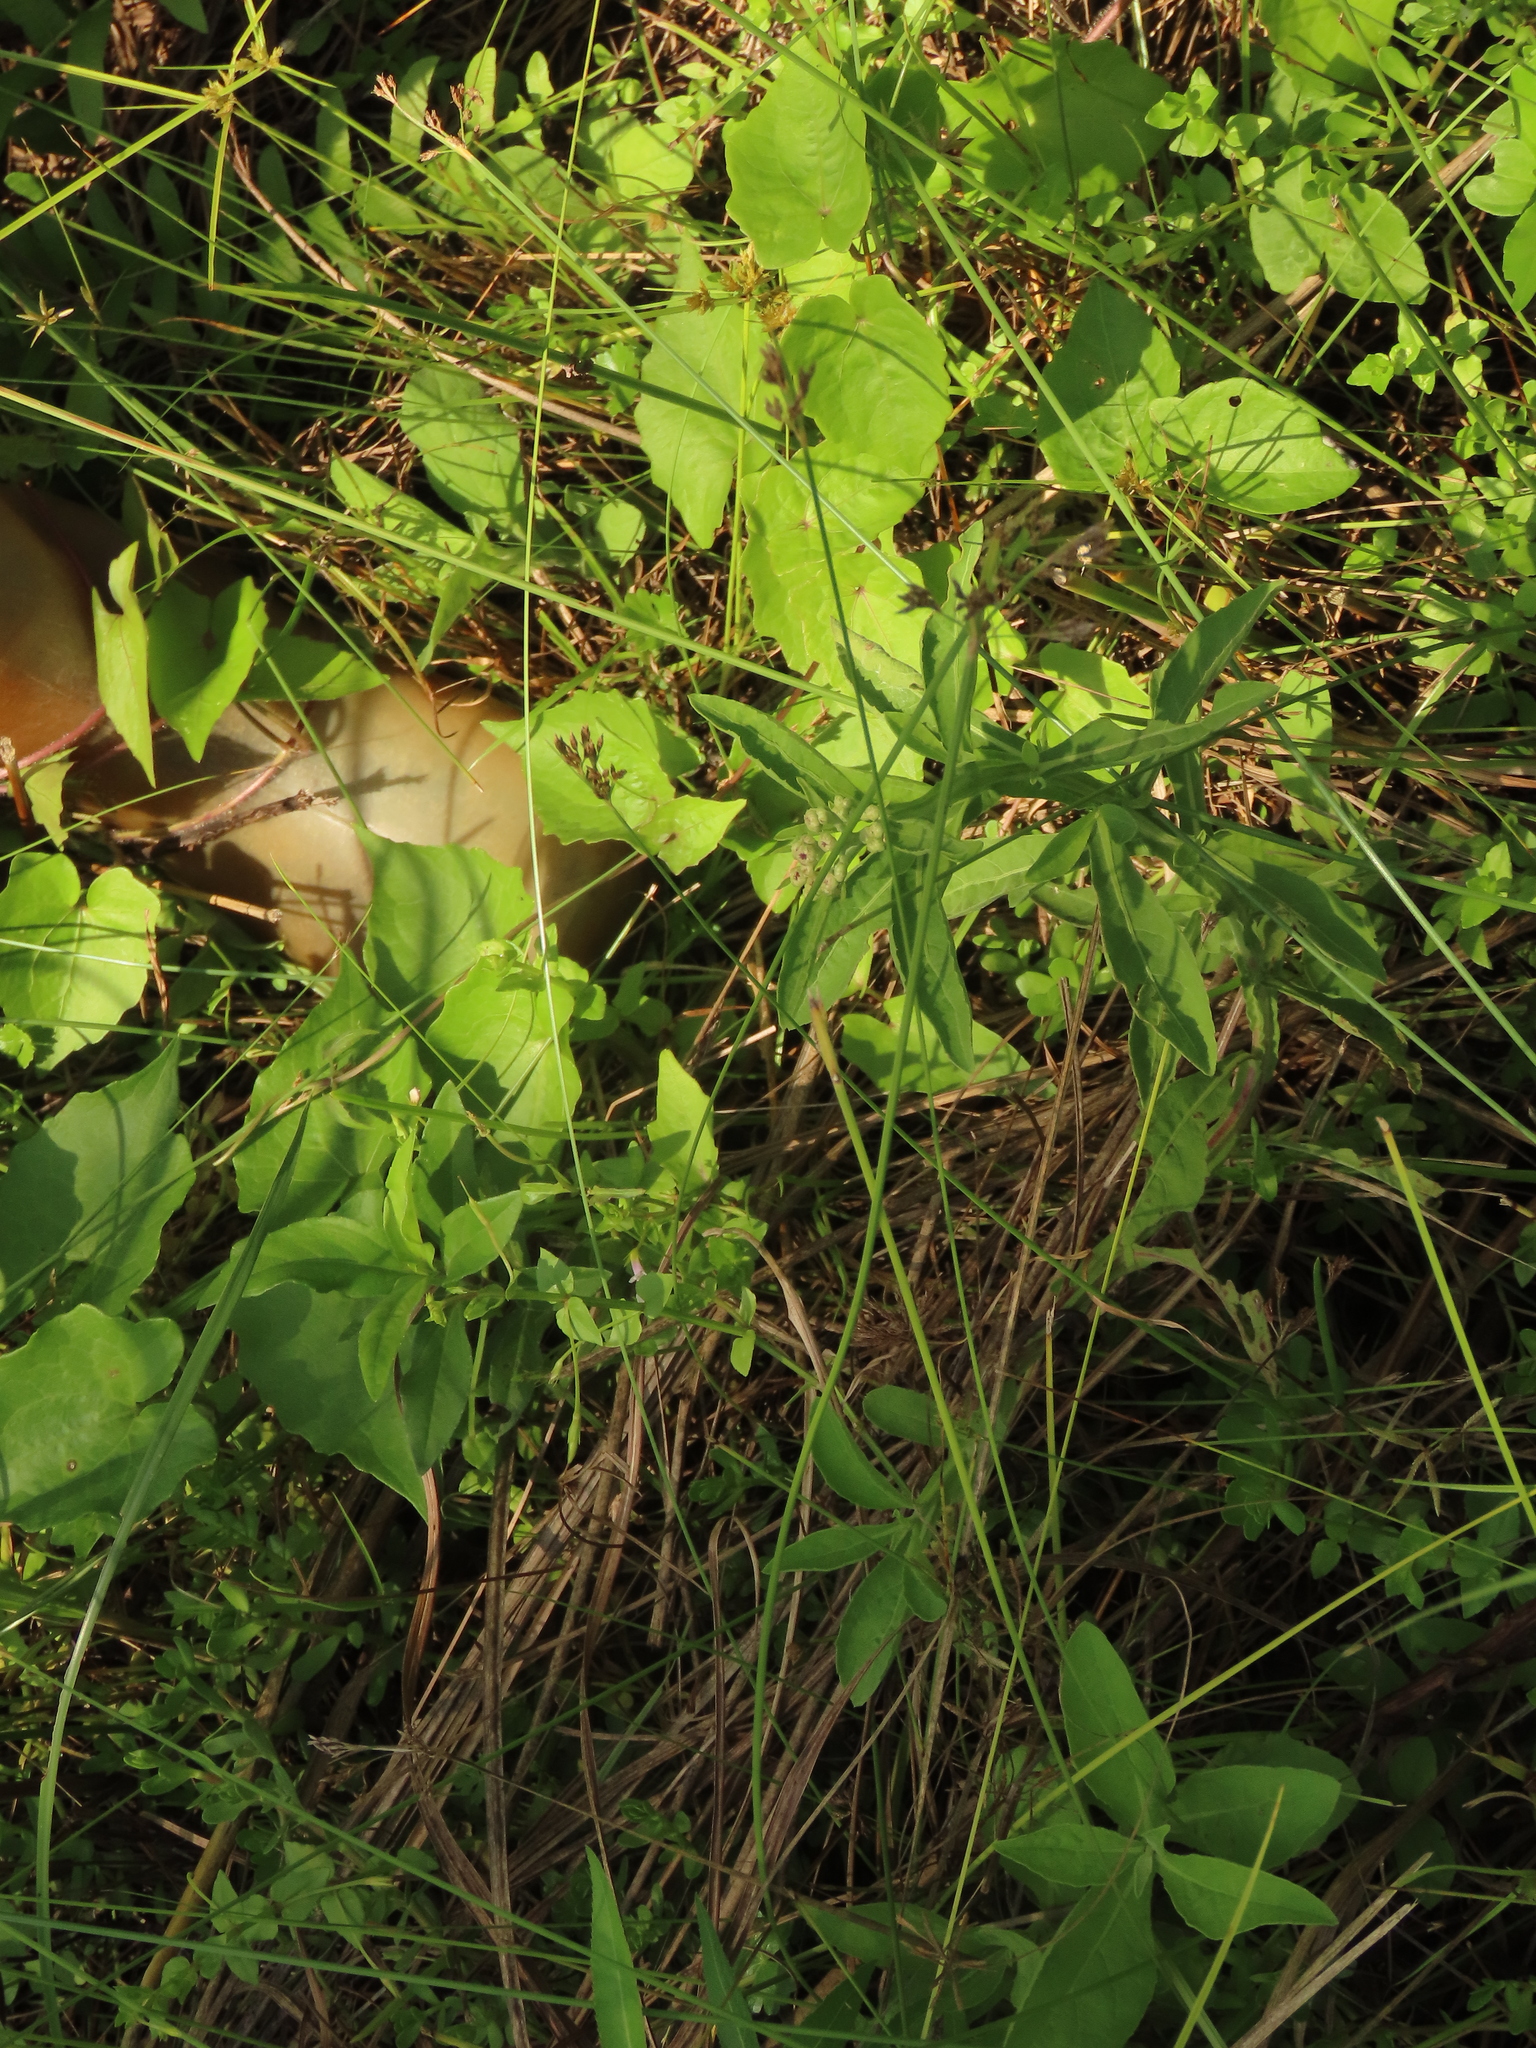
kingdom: Plantae
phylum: Tracheophyta
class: Magnoliopsida
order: Asterales
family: Asteraceae
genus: Pluchea
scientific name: Pluchea sagittalis
